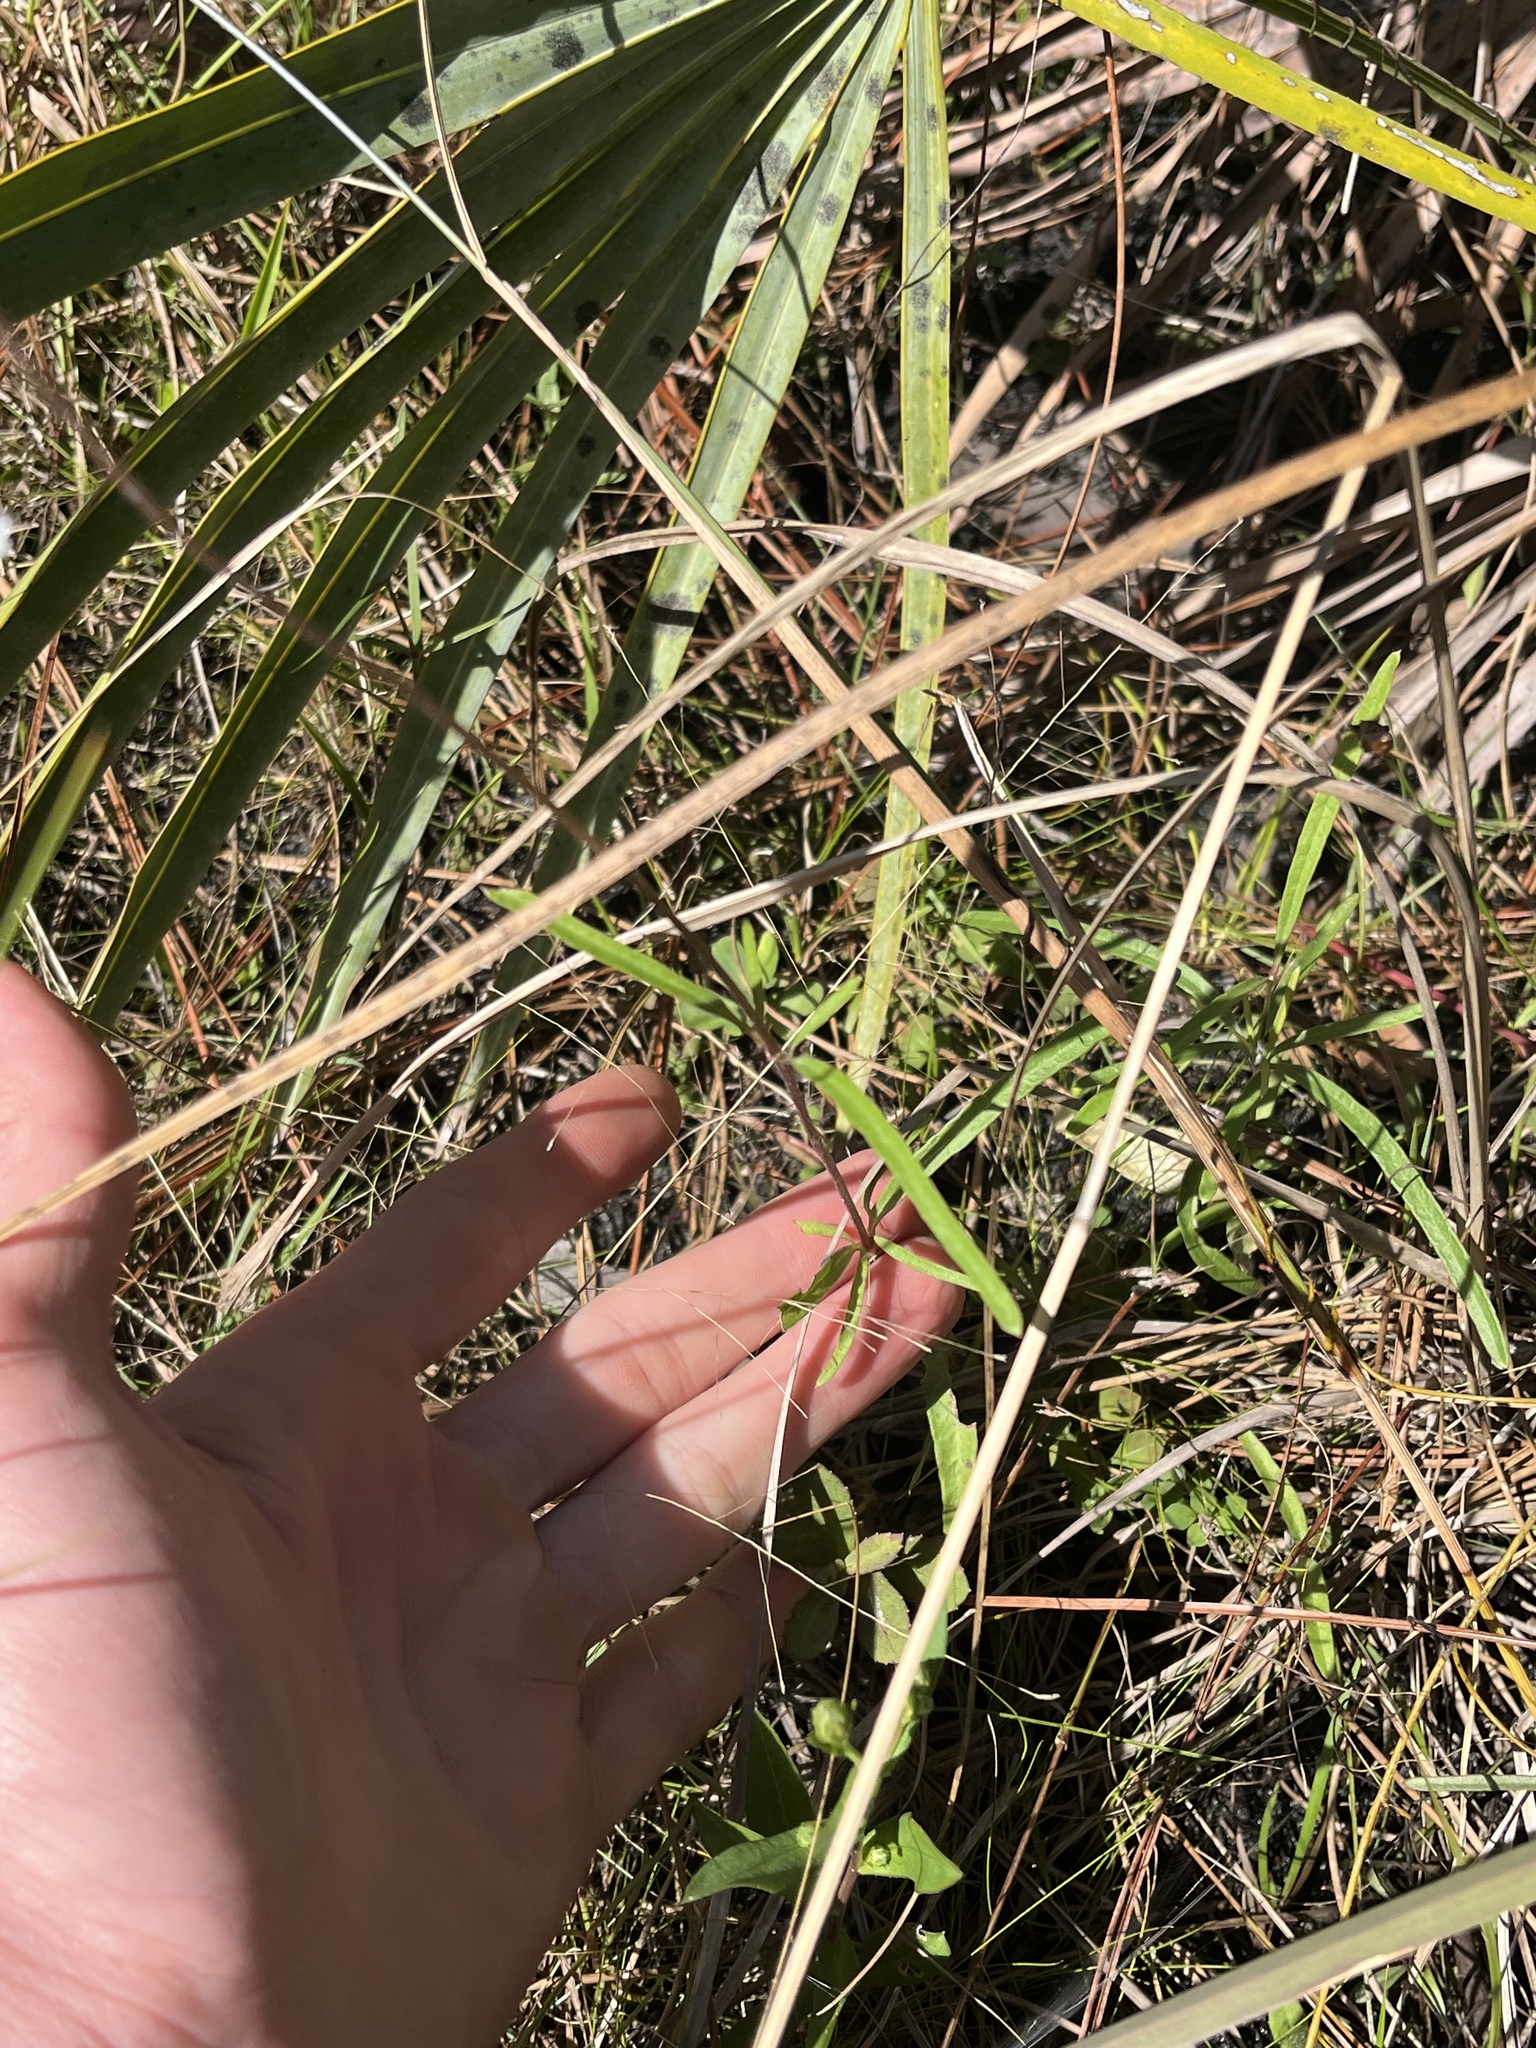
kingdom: Plantae
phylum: Tracheophyta
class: Magnoliopsida
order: Ranunculales
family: Ranunculaceae
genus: Clematis
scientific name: Clematis baldwinii
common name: Pine-hyacinth
